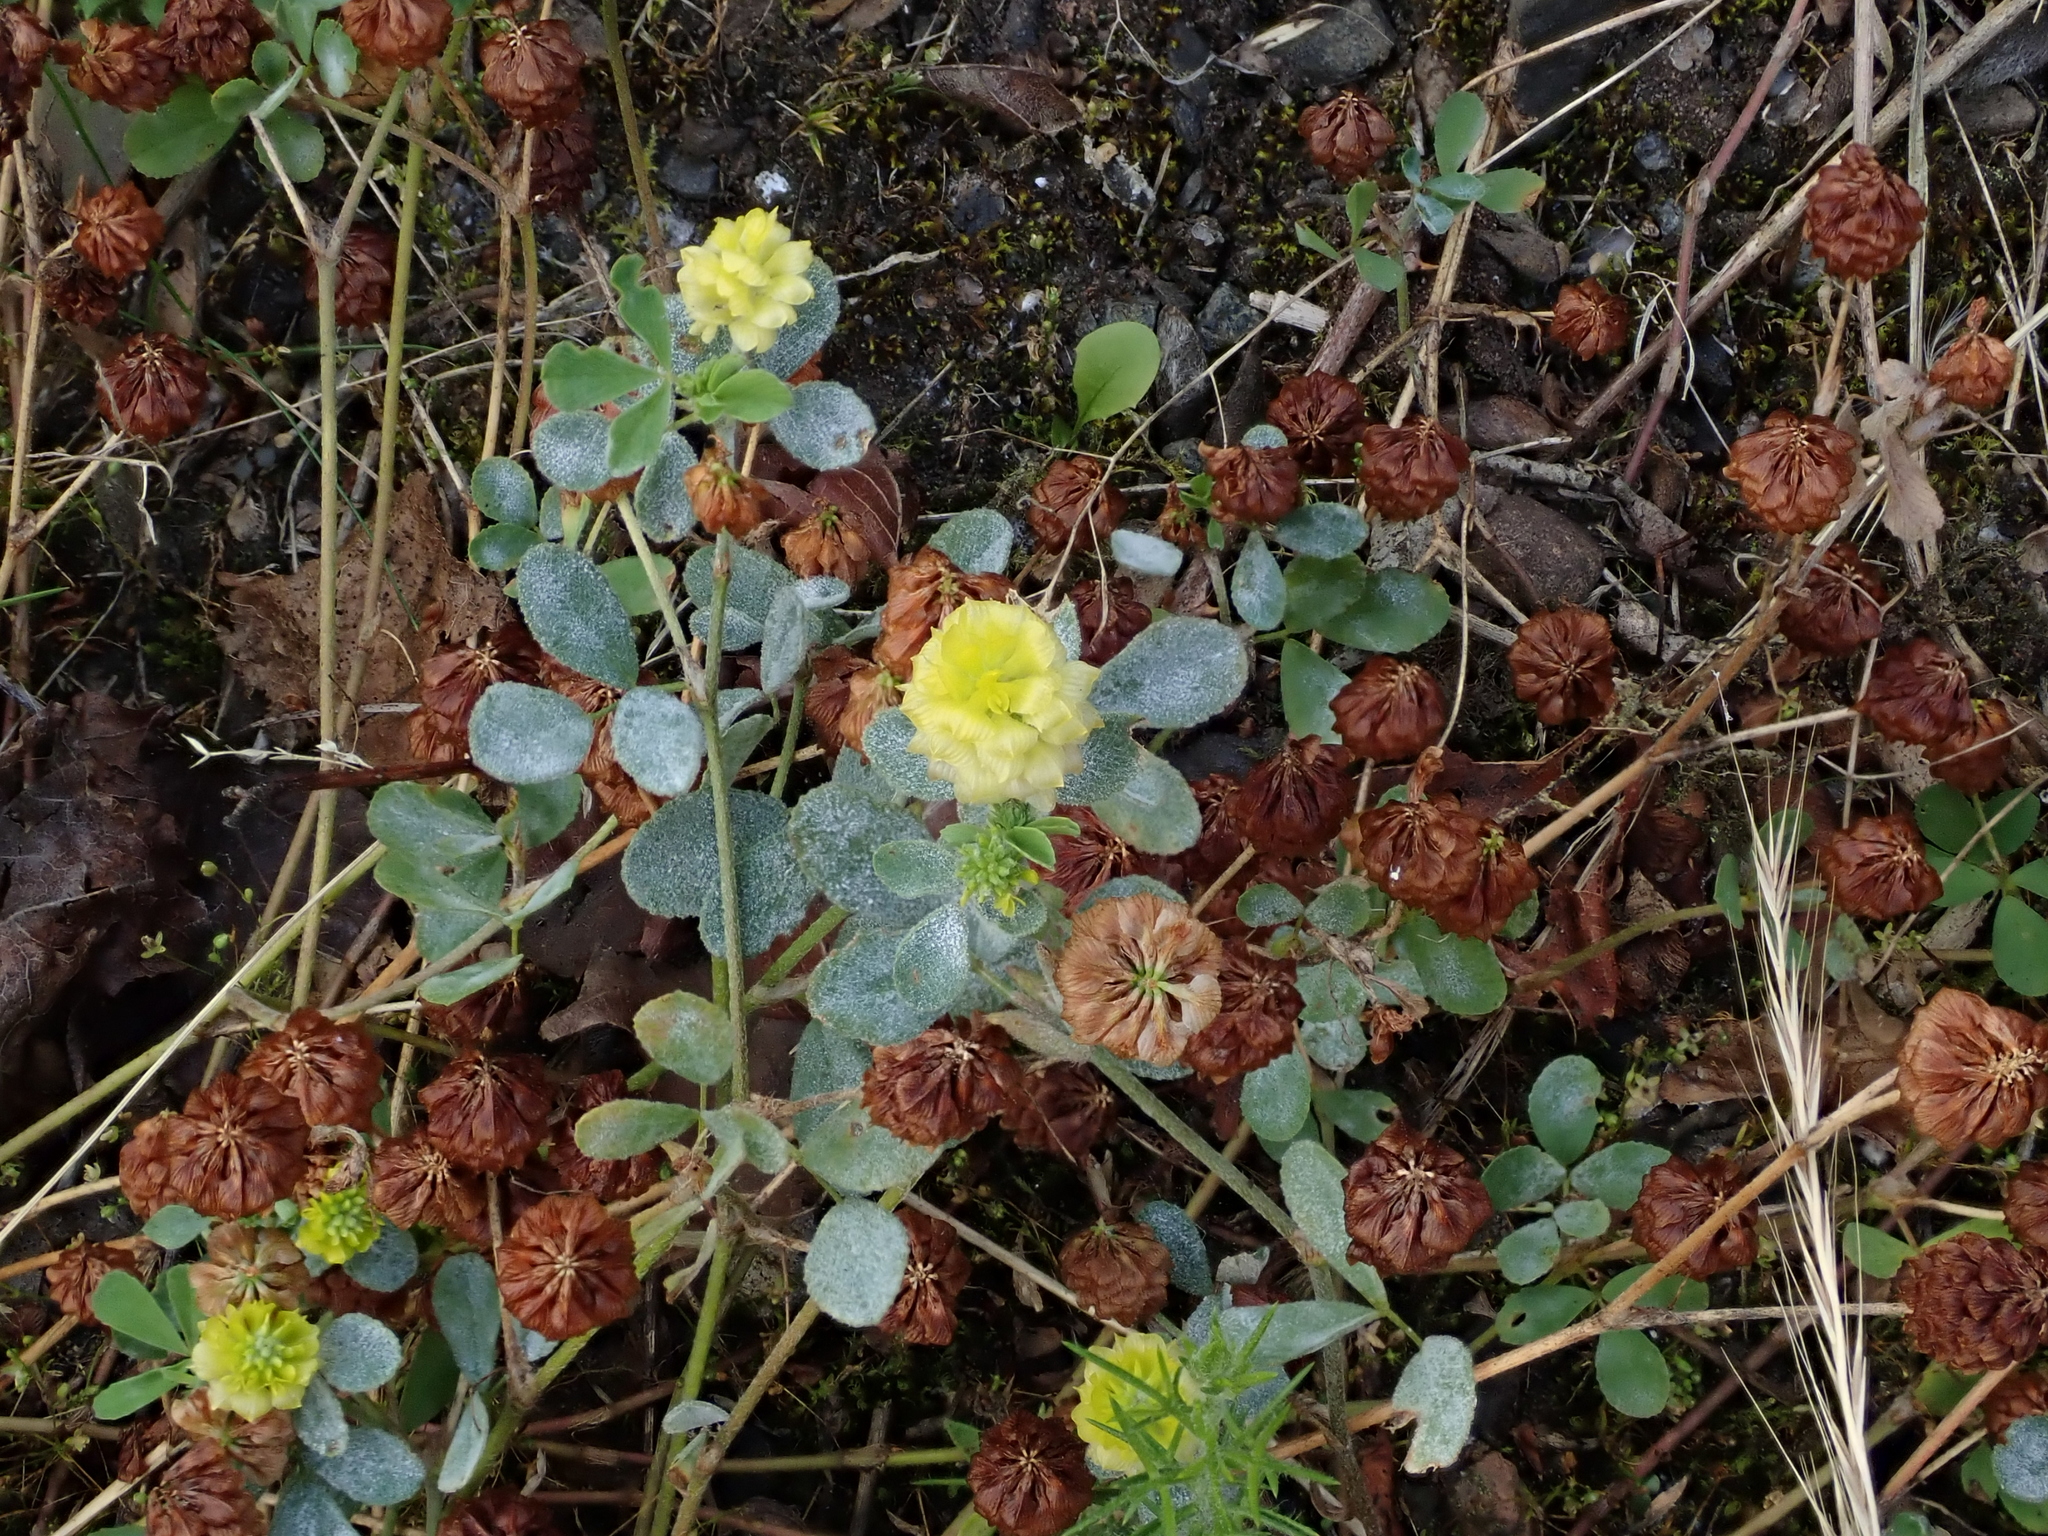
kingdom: Plantae
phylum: Tracheophyta
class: Magnoliopsida
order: Fabales
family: Fabaceae
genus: Trifolium
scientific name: Trifolium campestre
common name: Field clover
